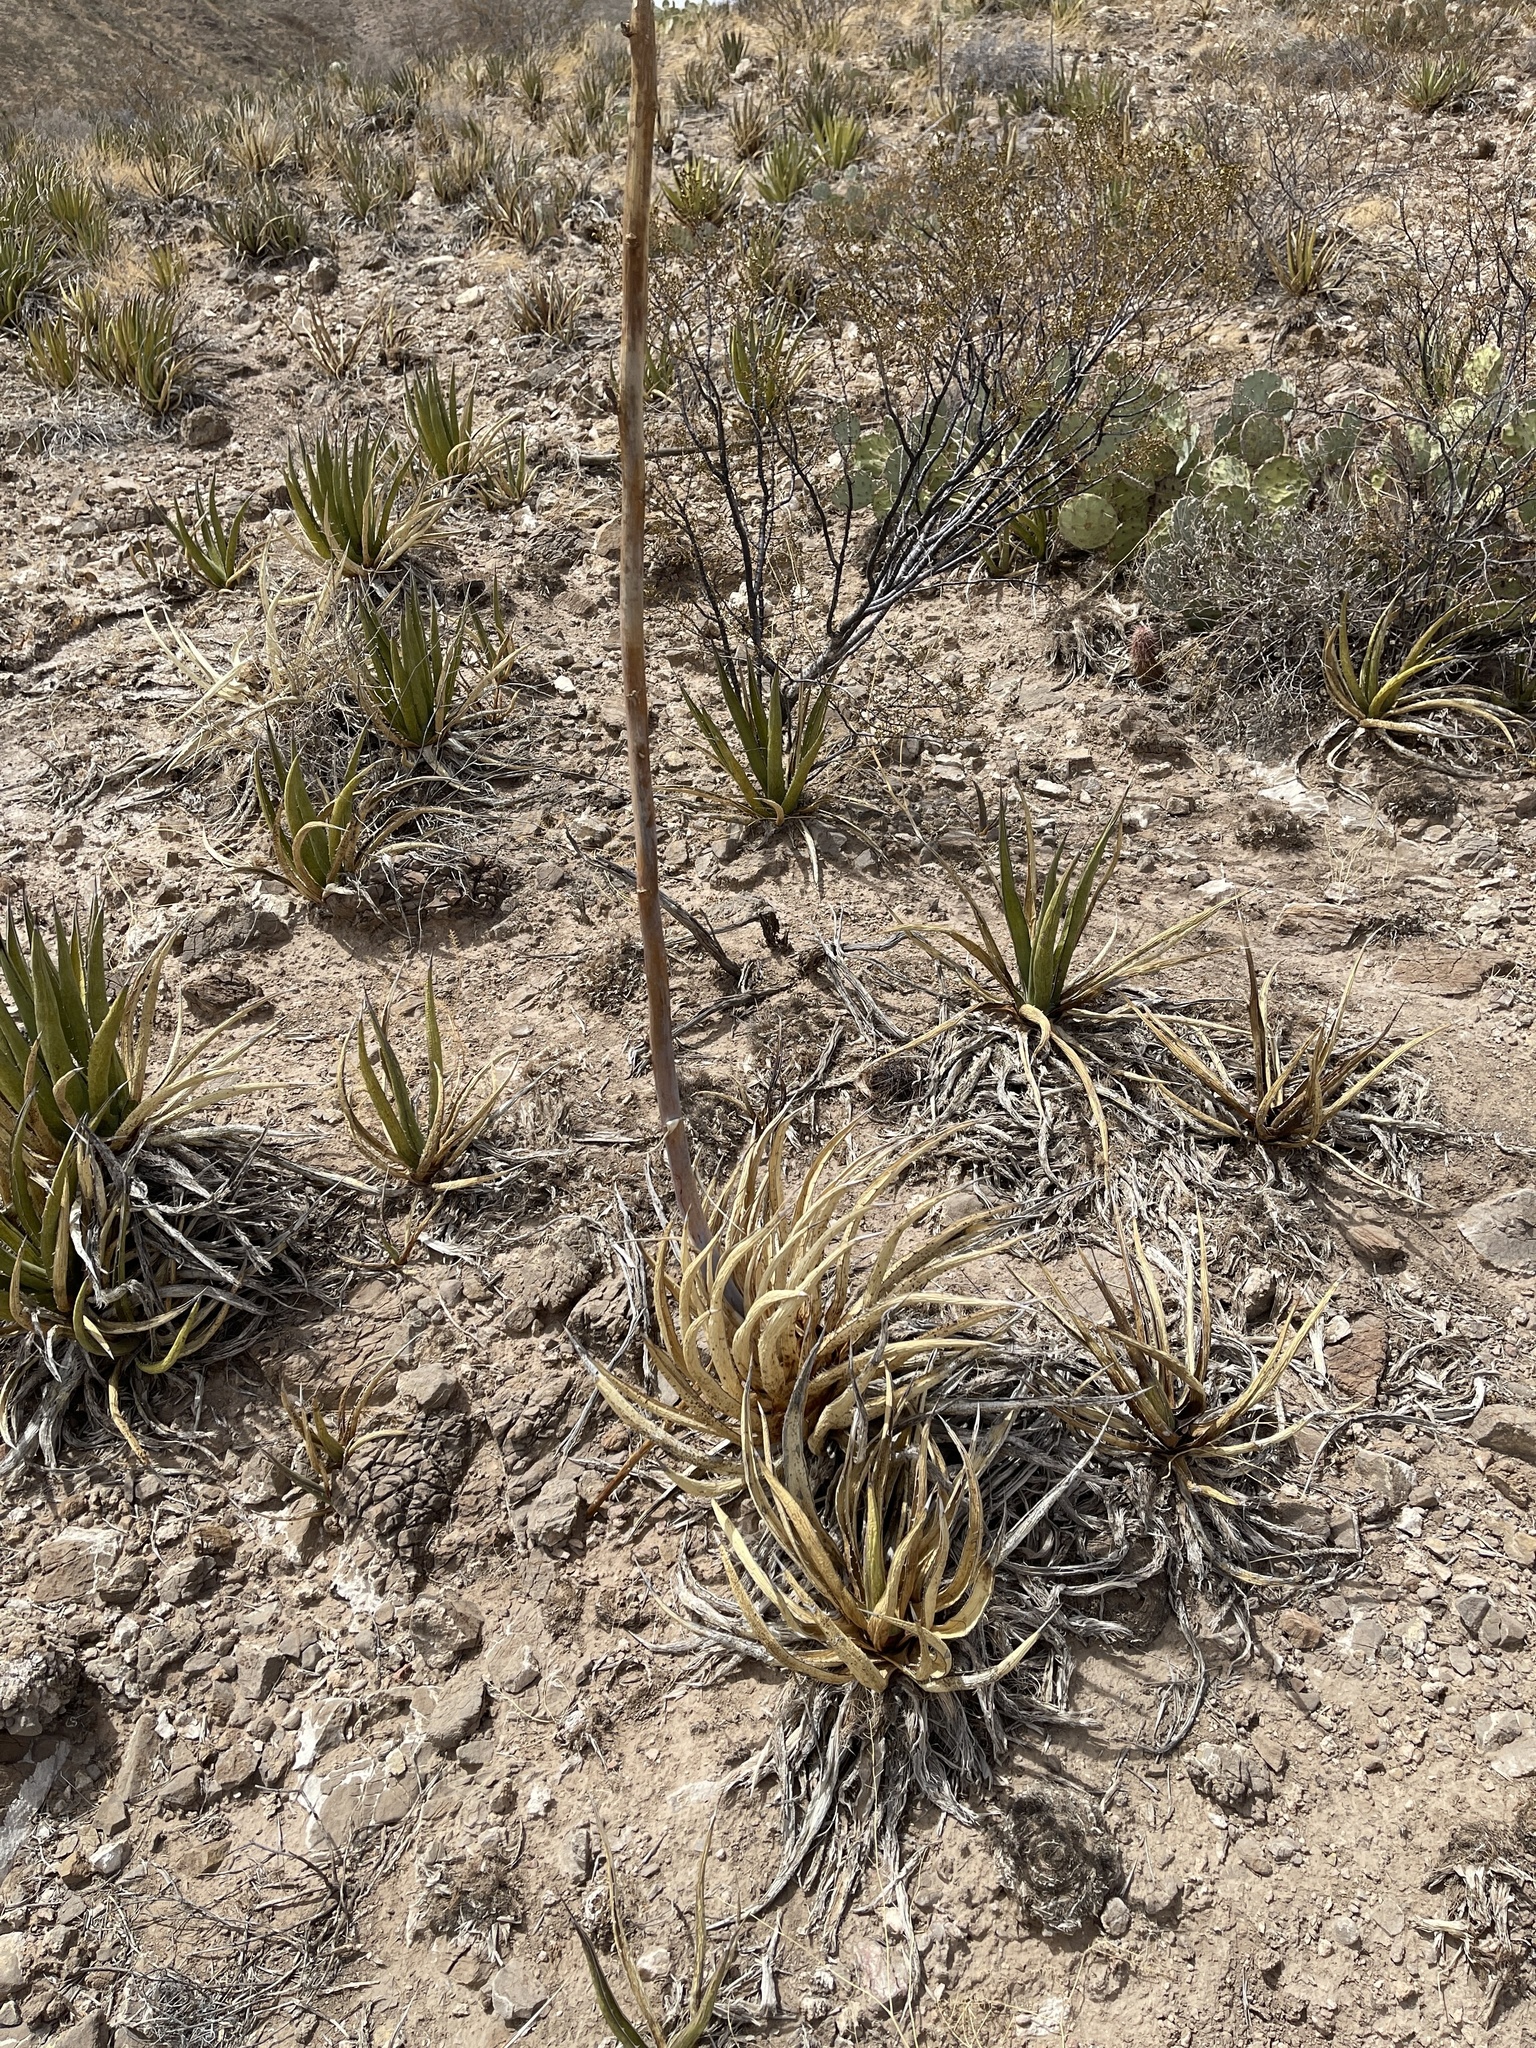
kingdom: Plantae
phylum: Tracheophyta
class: Liliopsida
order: Asparagales
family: Asparagaceae
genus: Agave
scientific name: Agave lechuguilla
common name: Lecheguilla agave
